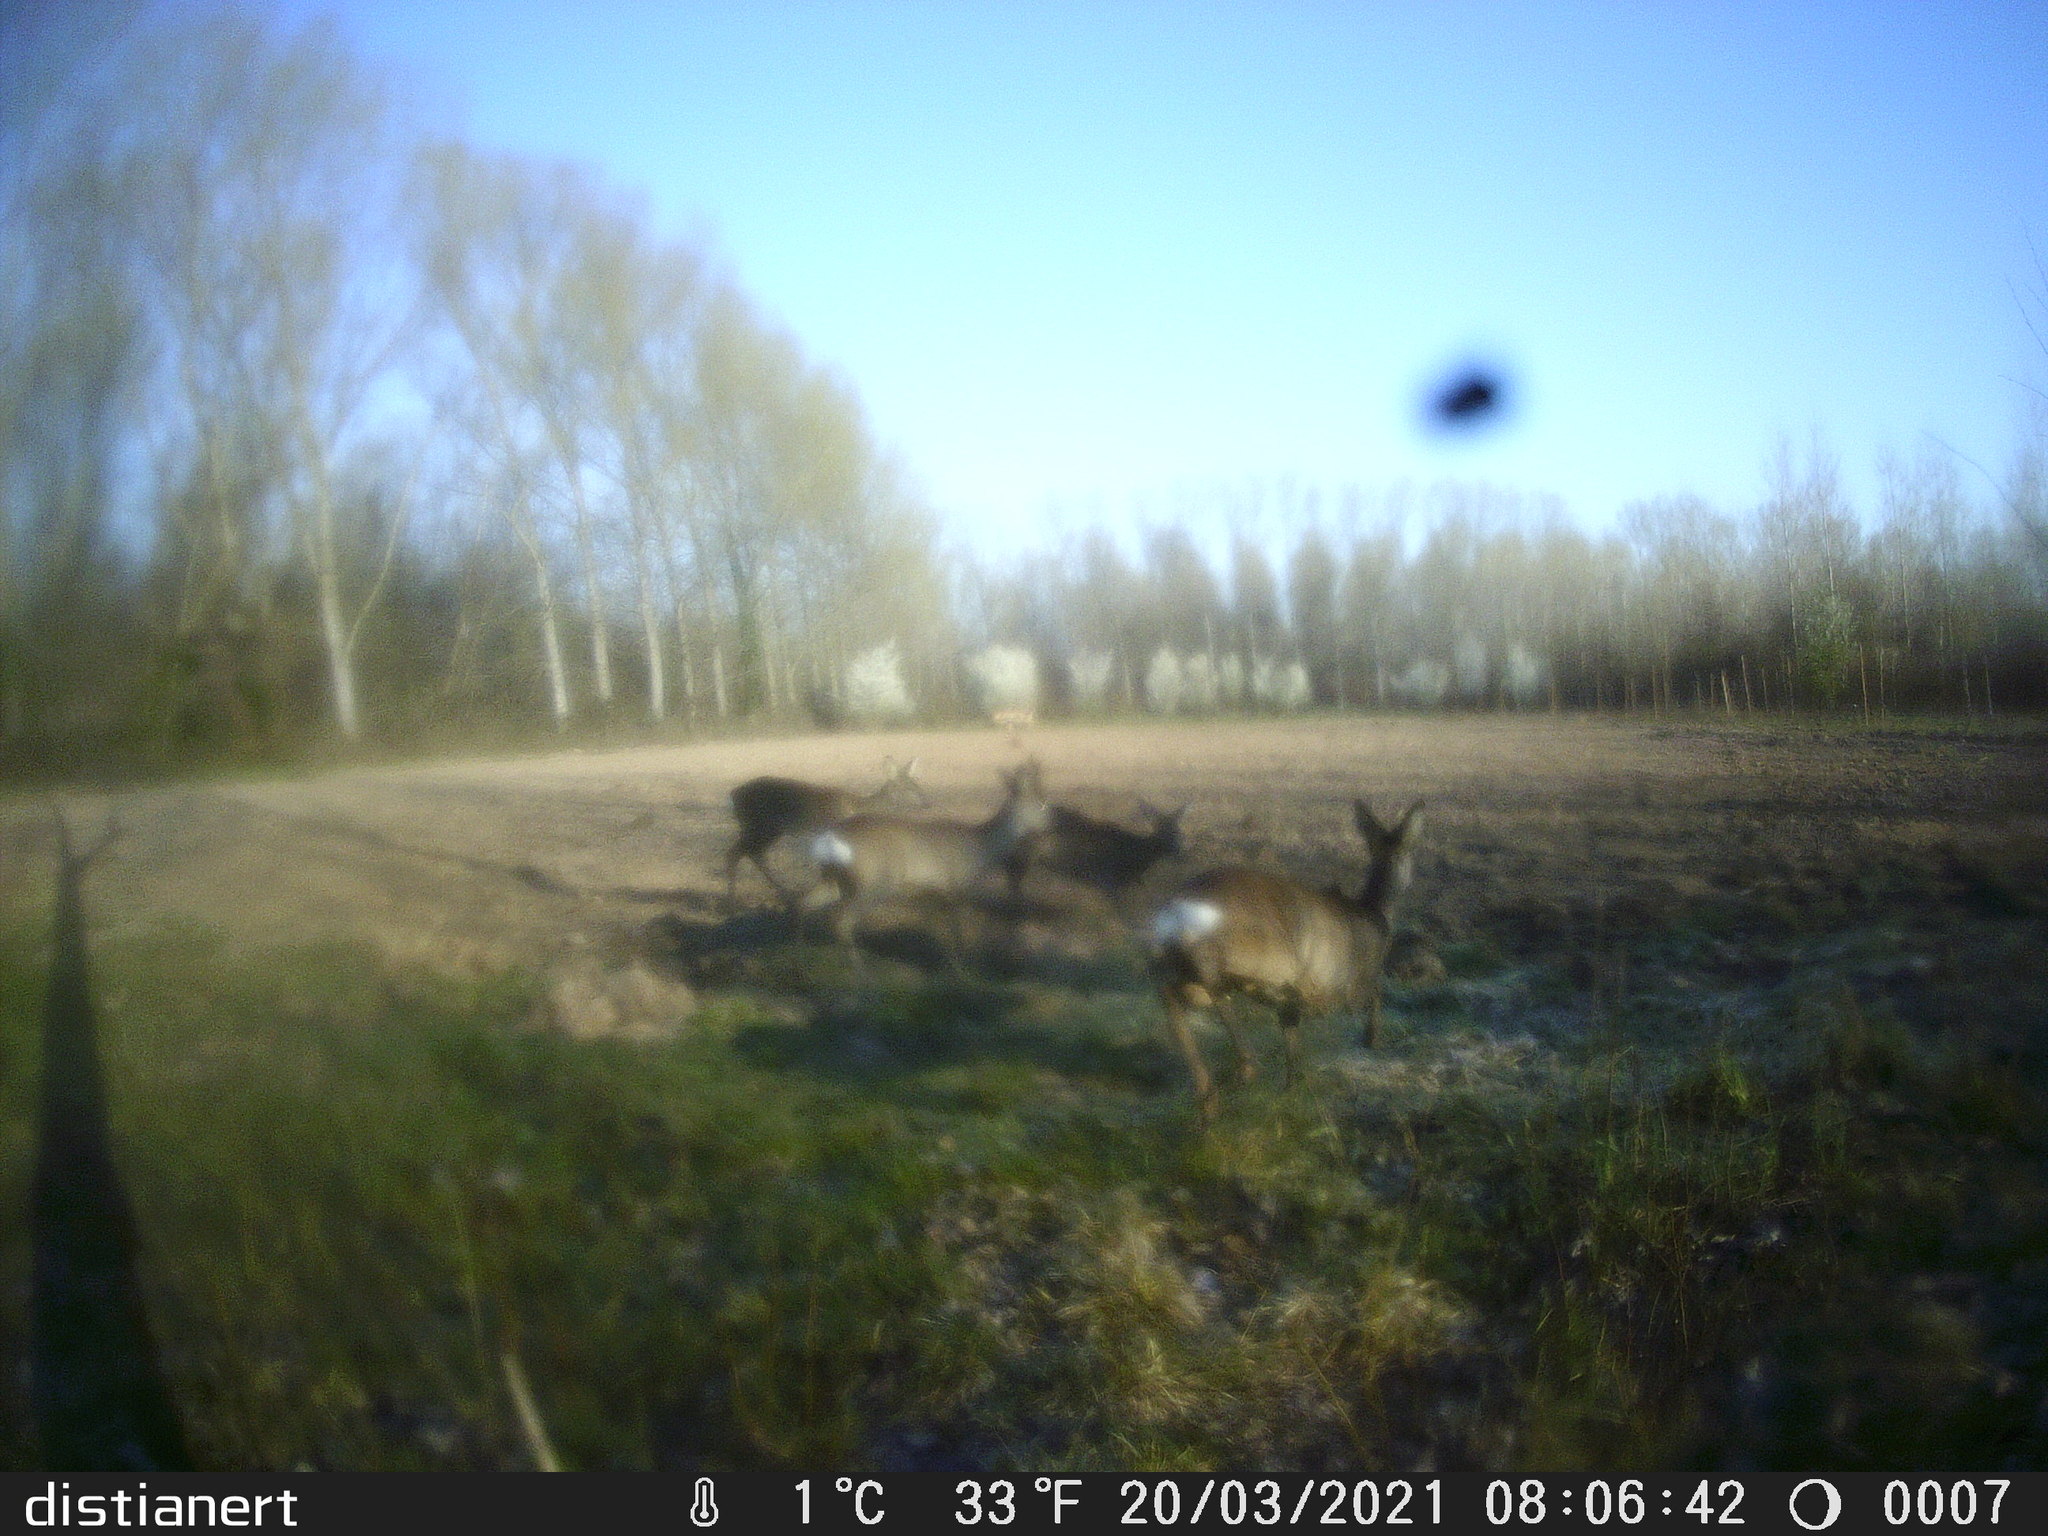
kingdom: Animalia
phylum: Chordata
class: Mammalia
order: Artiodactyla
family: Cervidae
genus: Capreolus
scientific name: Capreolus capreolus
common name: Western roe deer
